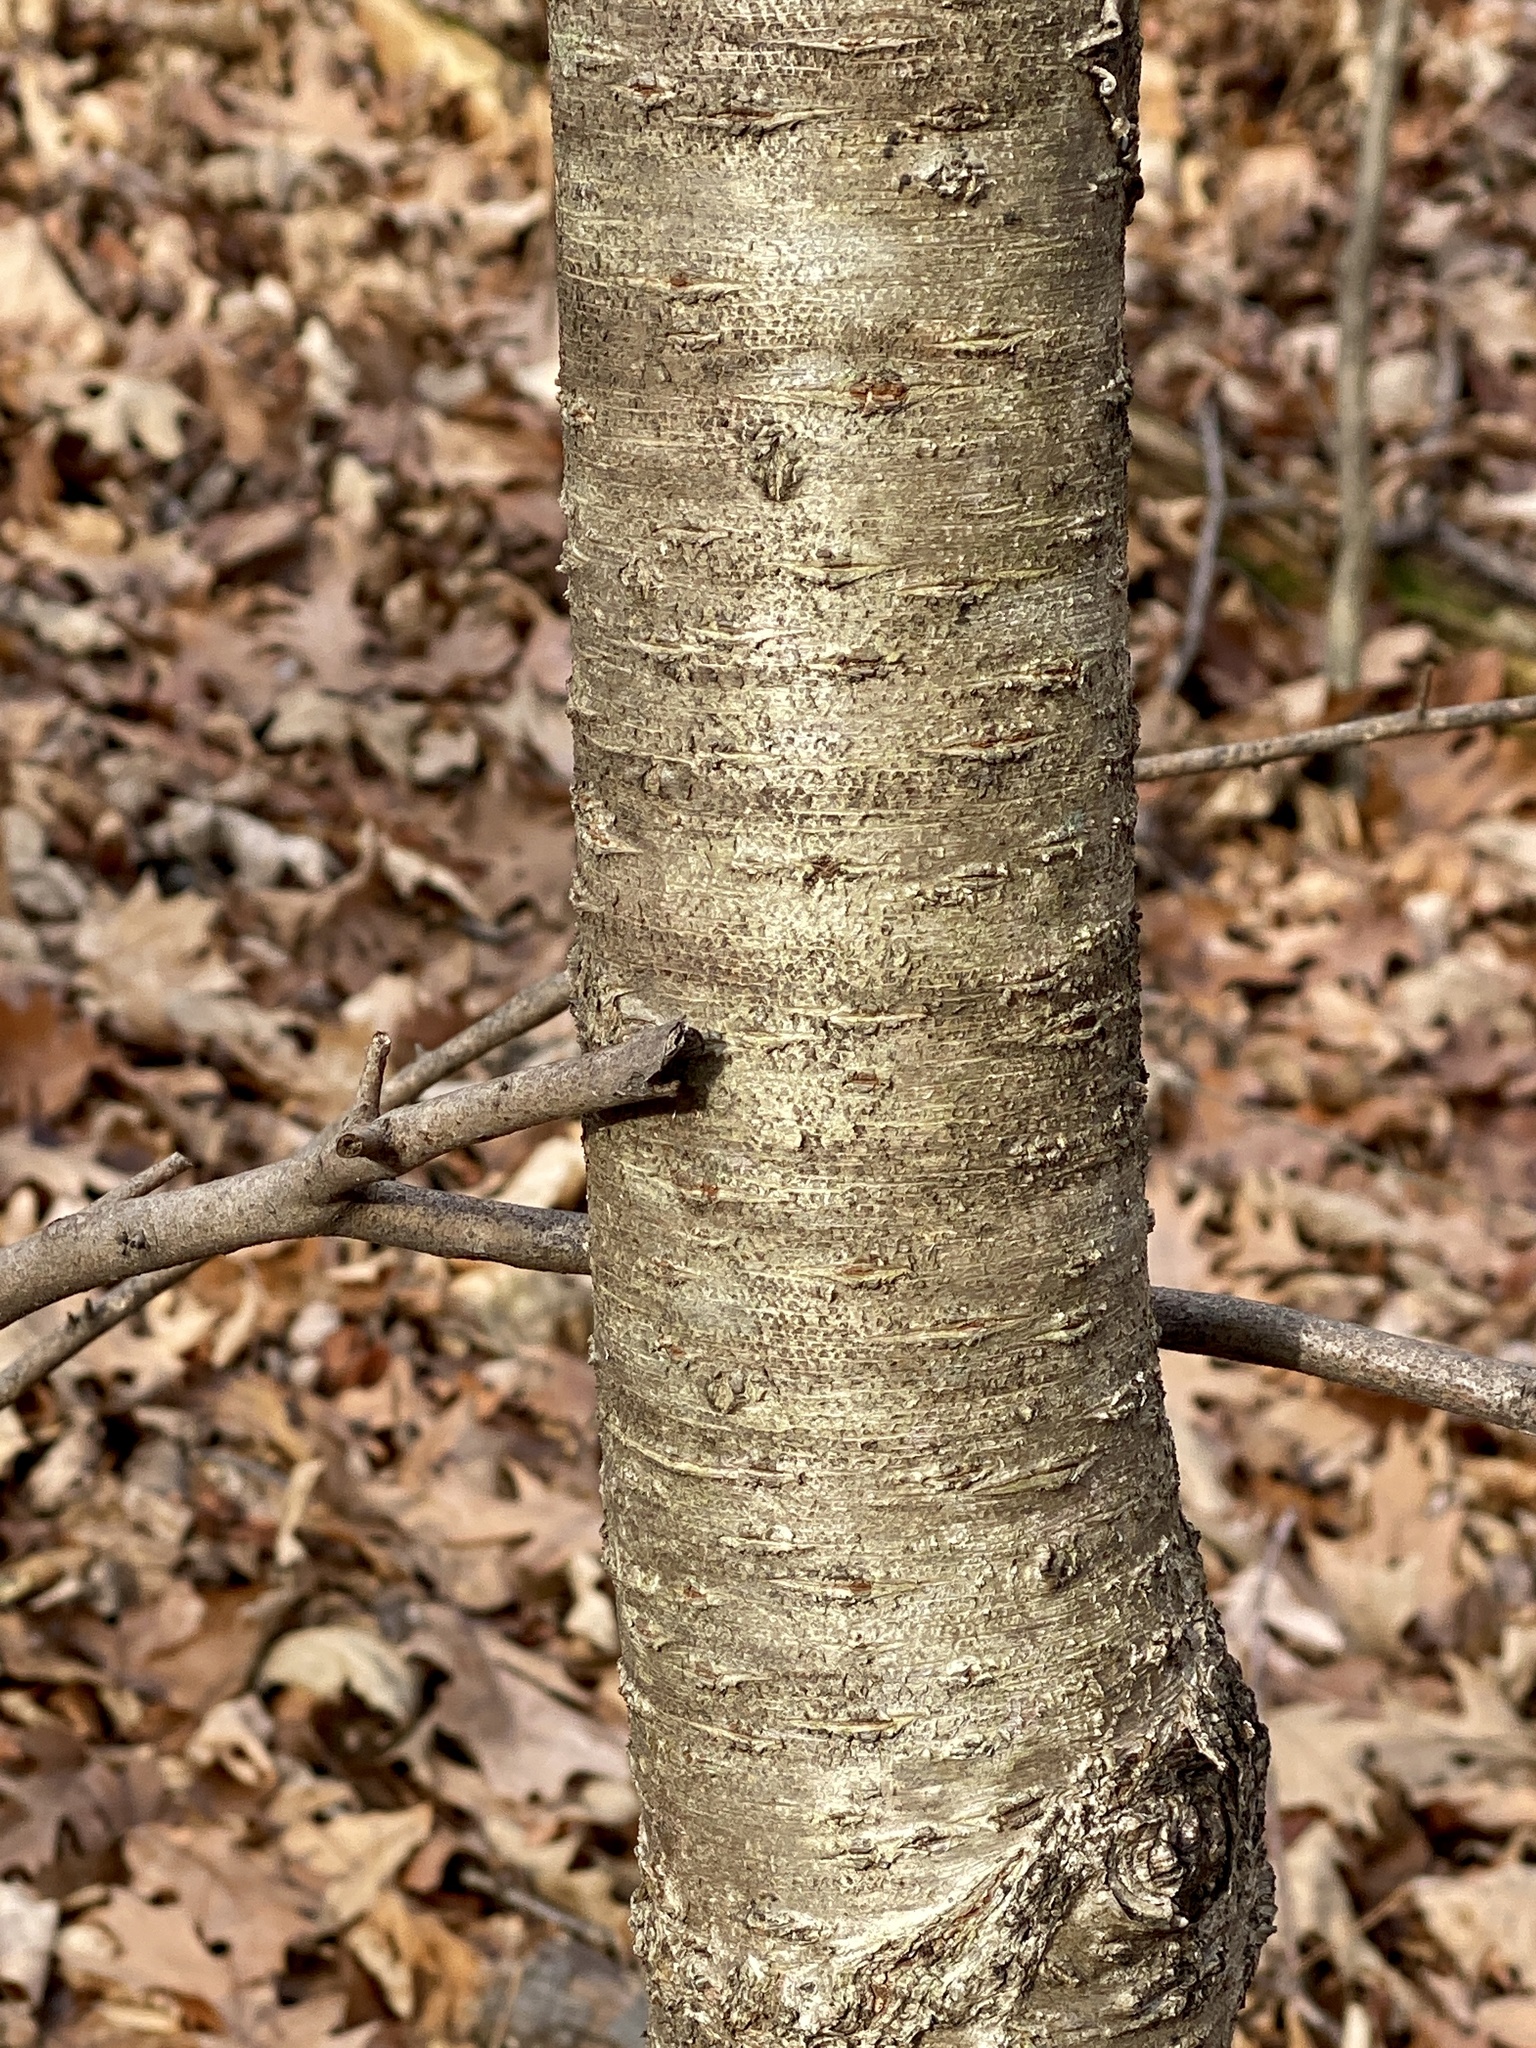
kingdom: Plantae
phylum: Tracheophyta
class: Magnoliopsida
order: Fagales
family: Betulaceae
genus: Betula
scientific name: Betula lenta
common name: Black birch
